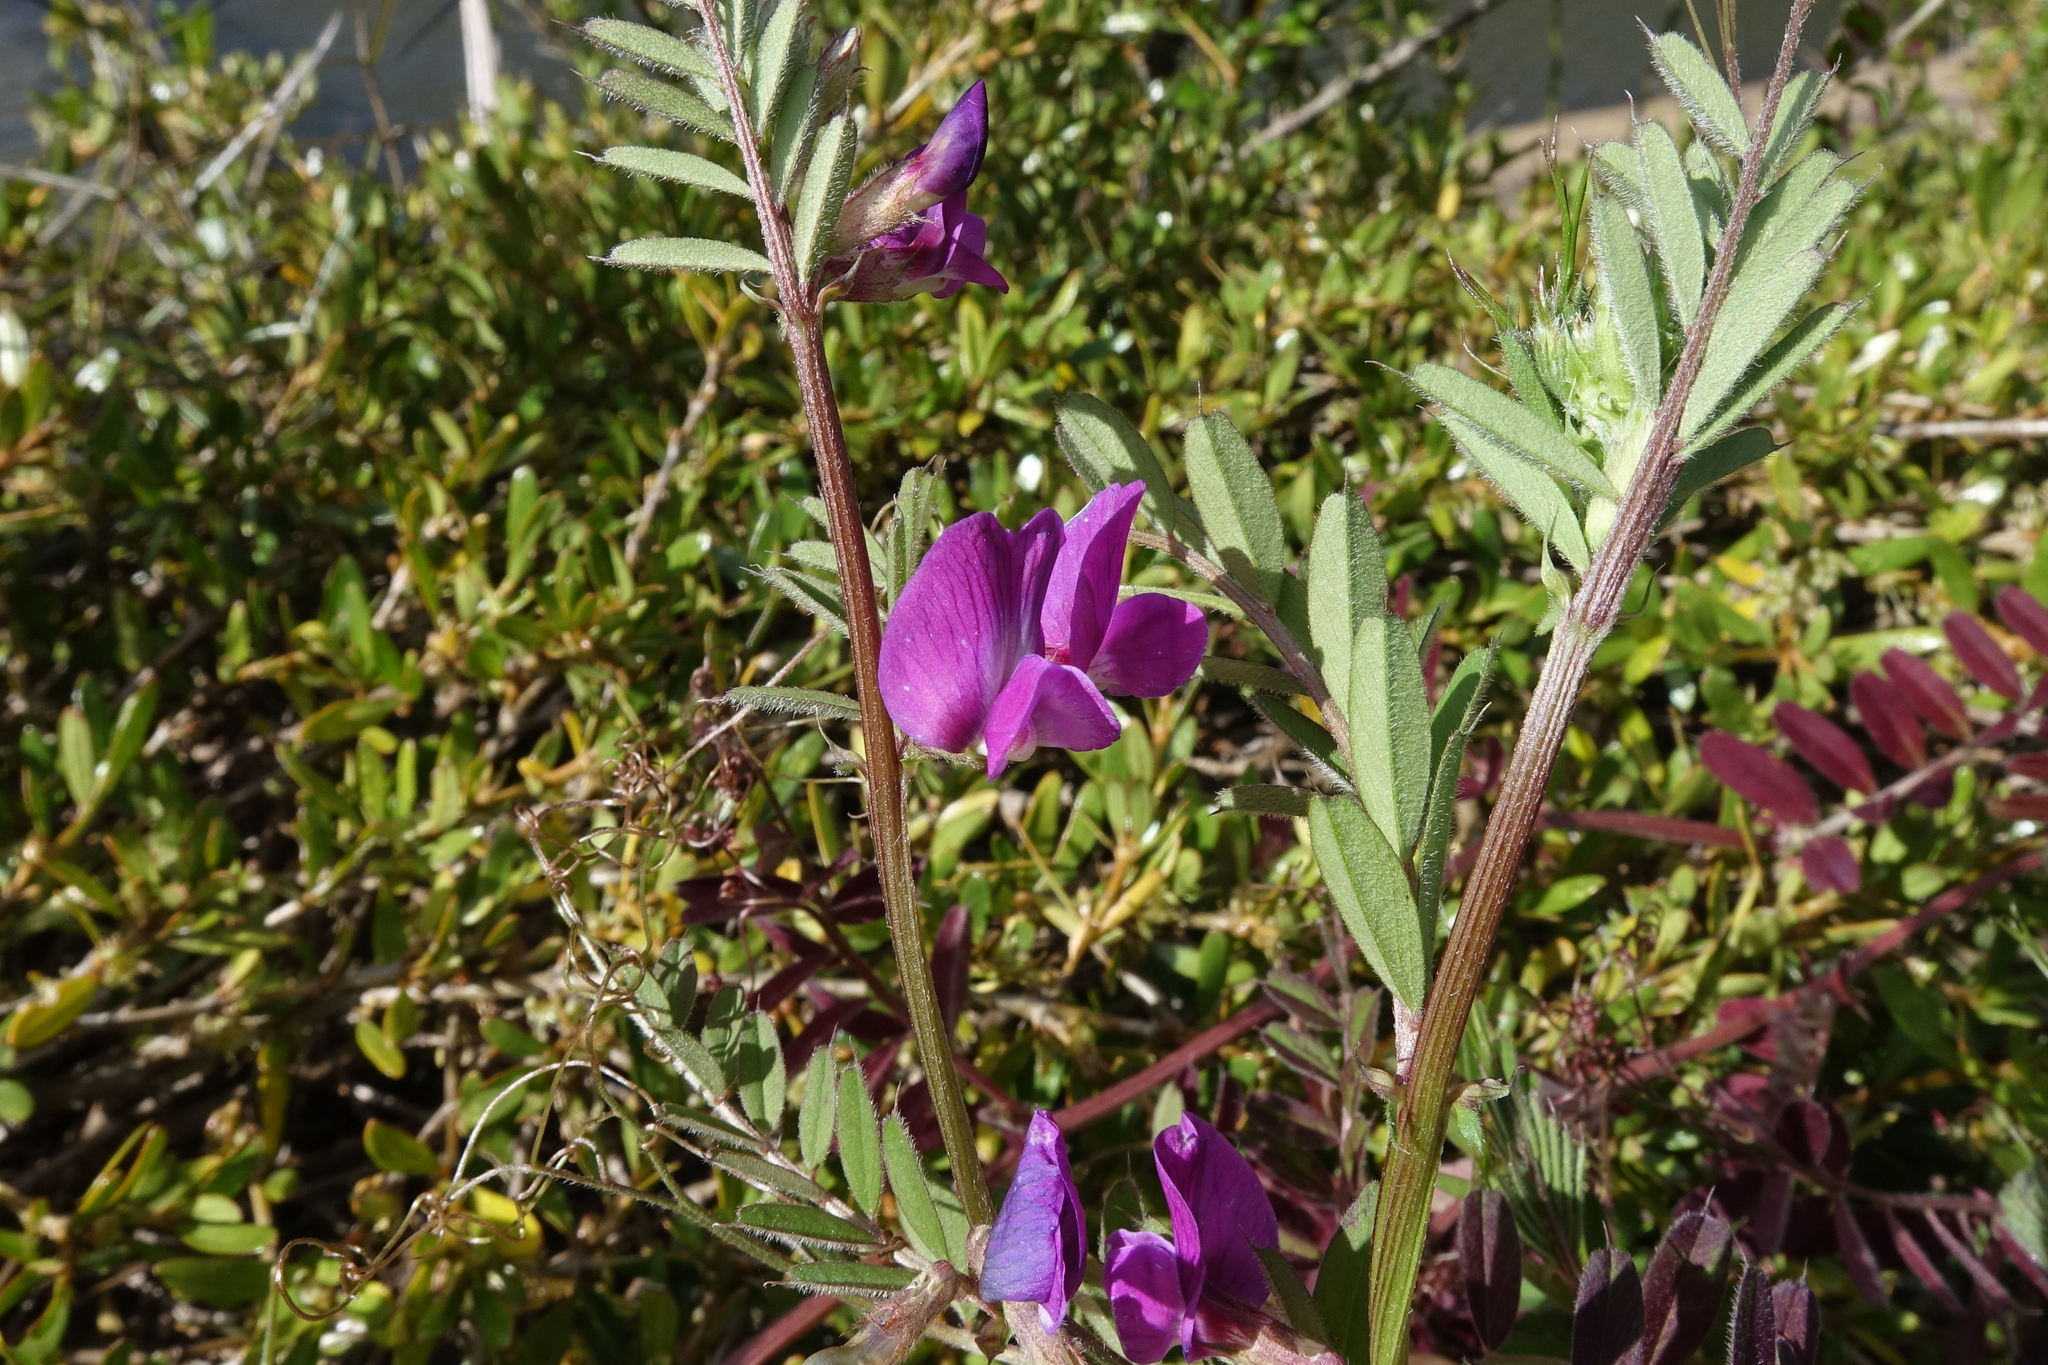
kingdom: Plantae
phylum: Tracheophyta
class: Magnoliopsida
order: Fabales
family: Fabaceae
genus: Vicia
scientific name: Vicia sativa
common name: Garden vetch
